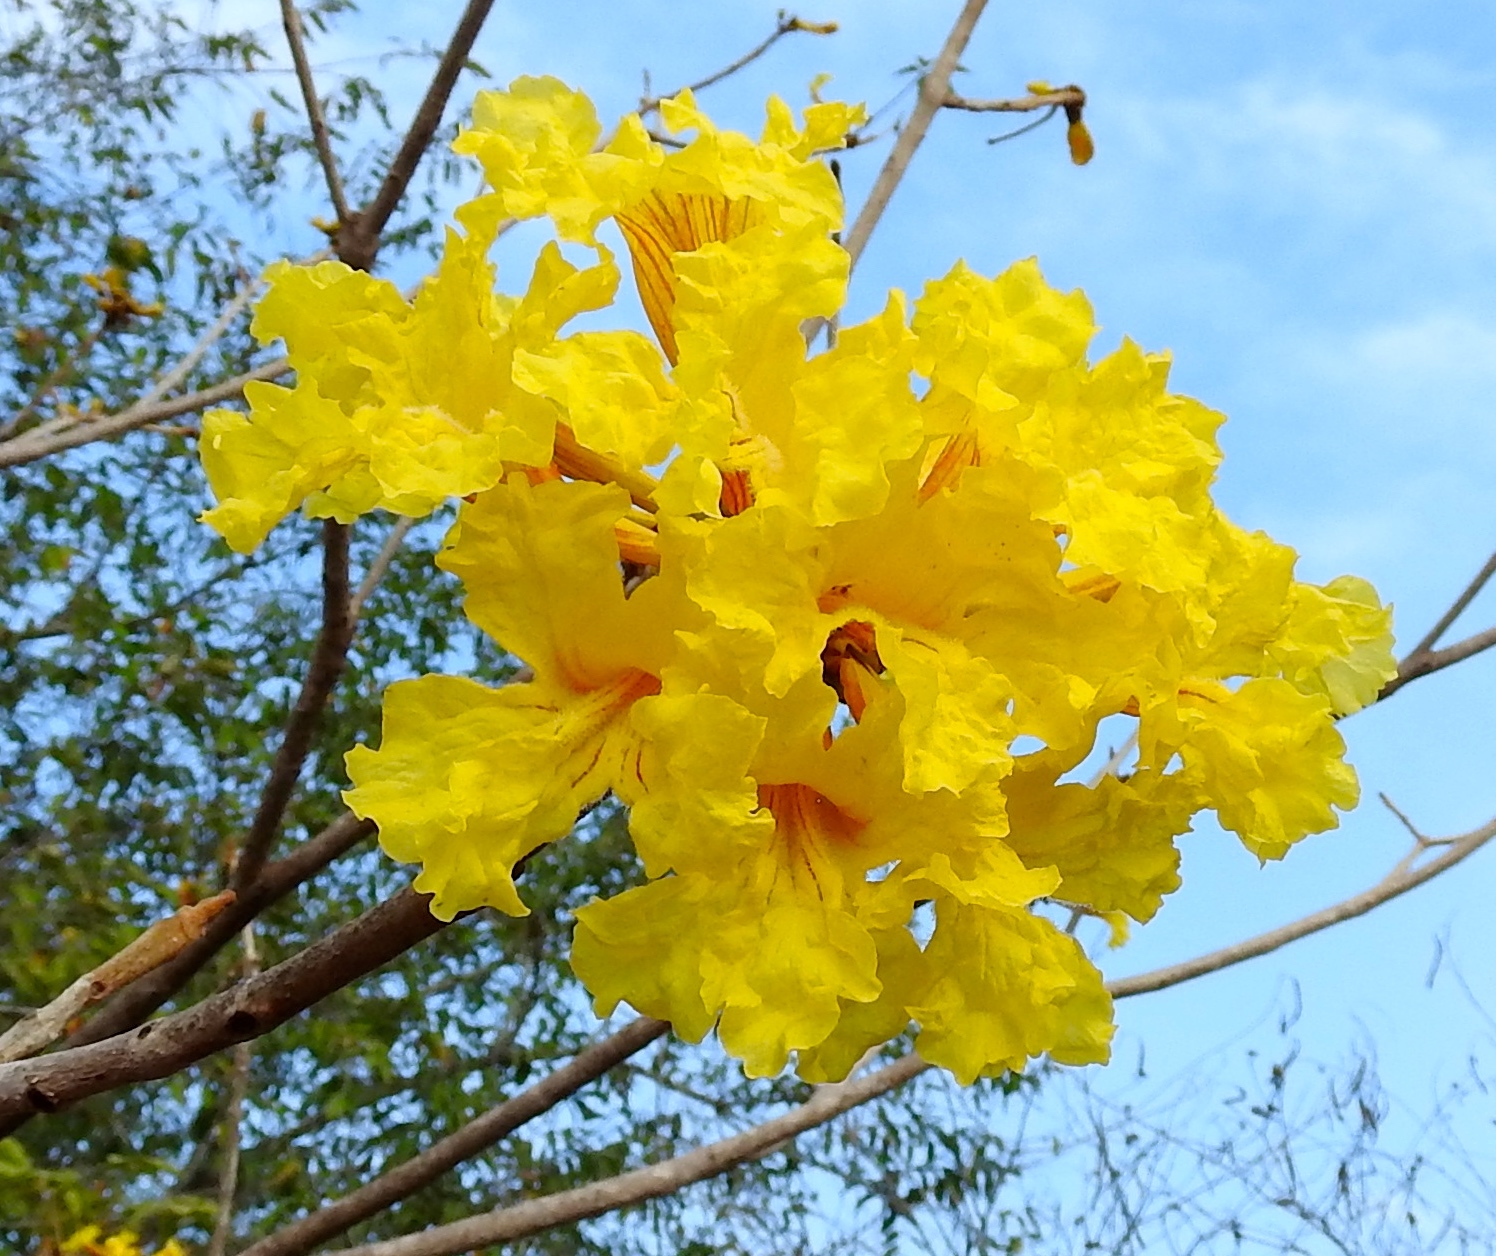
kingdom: Plantae
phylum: Tracheophyta
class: Magnoliopsida
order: Lamiales
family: Bignoniaceae
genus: Handroanthus
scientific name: Handroanthus chrysanthus
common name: Trumpet trees
